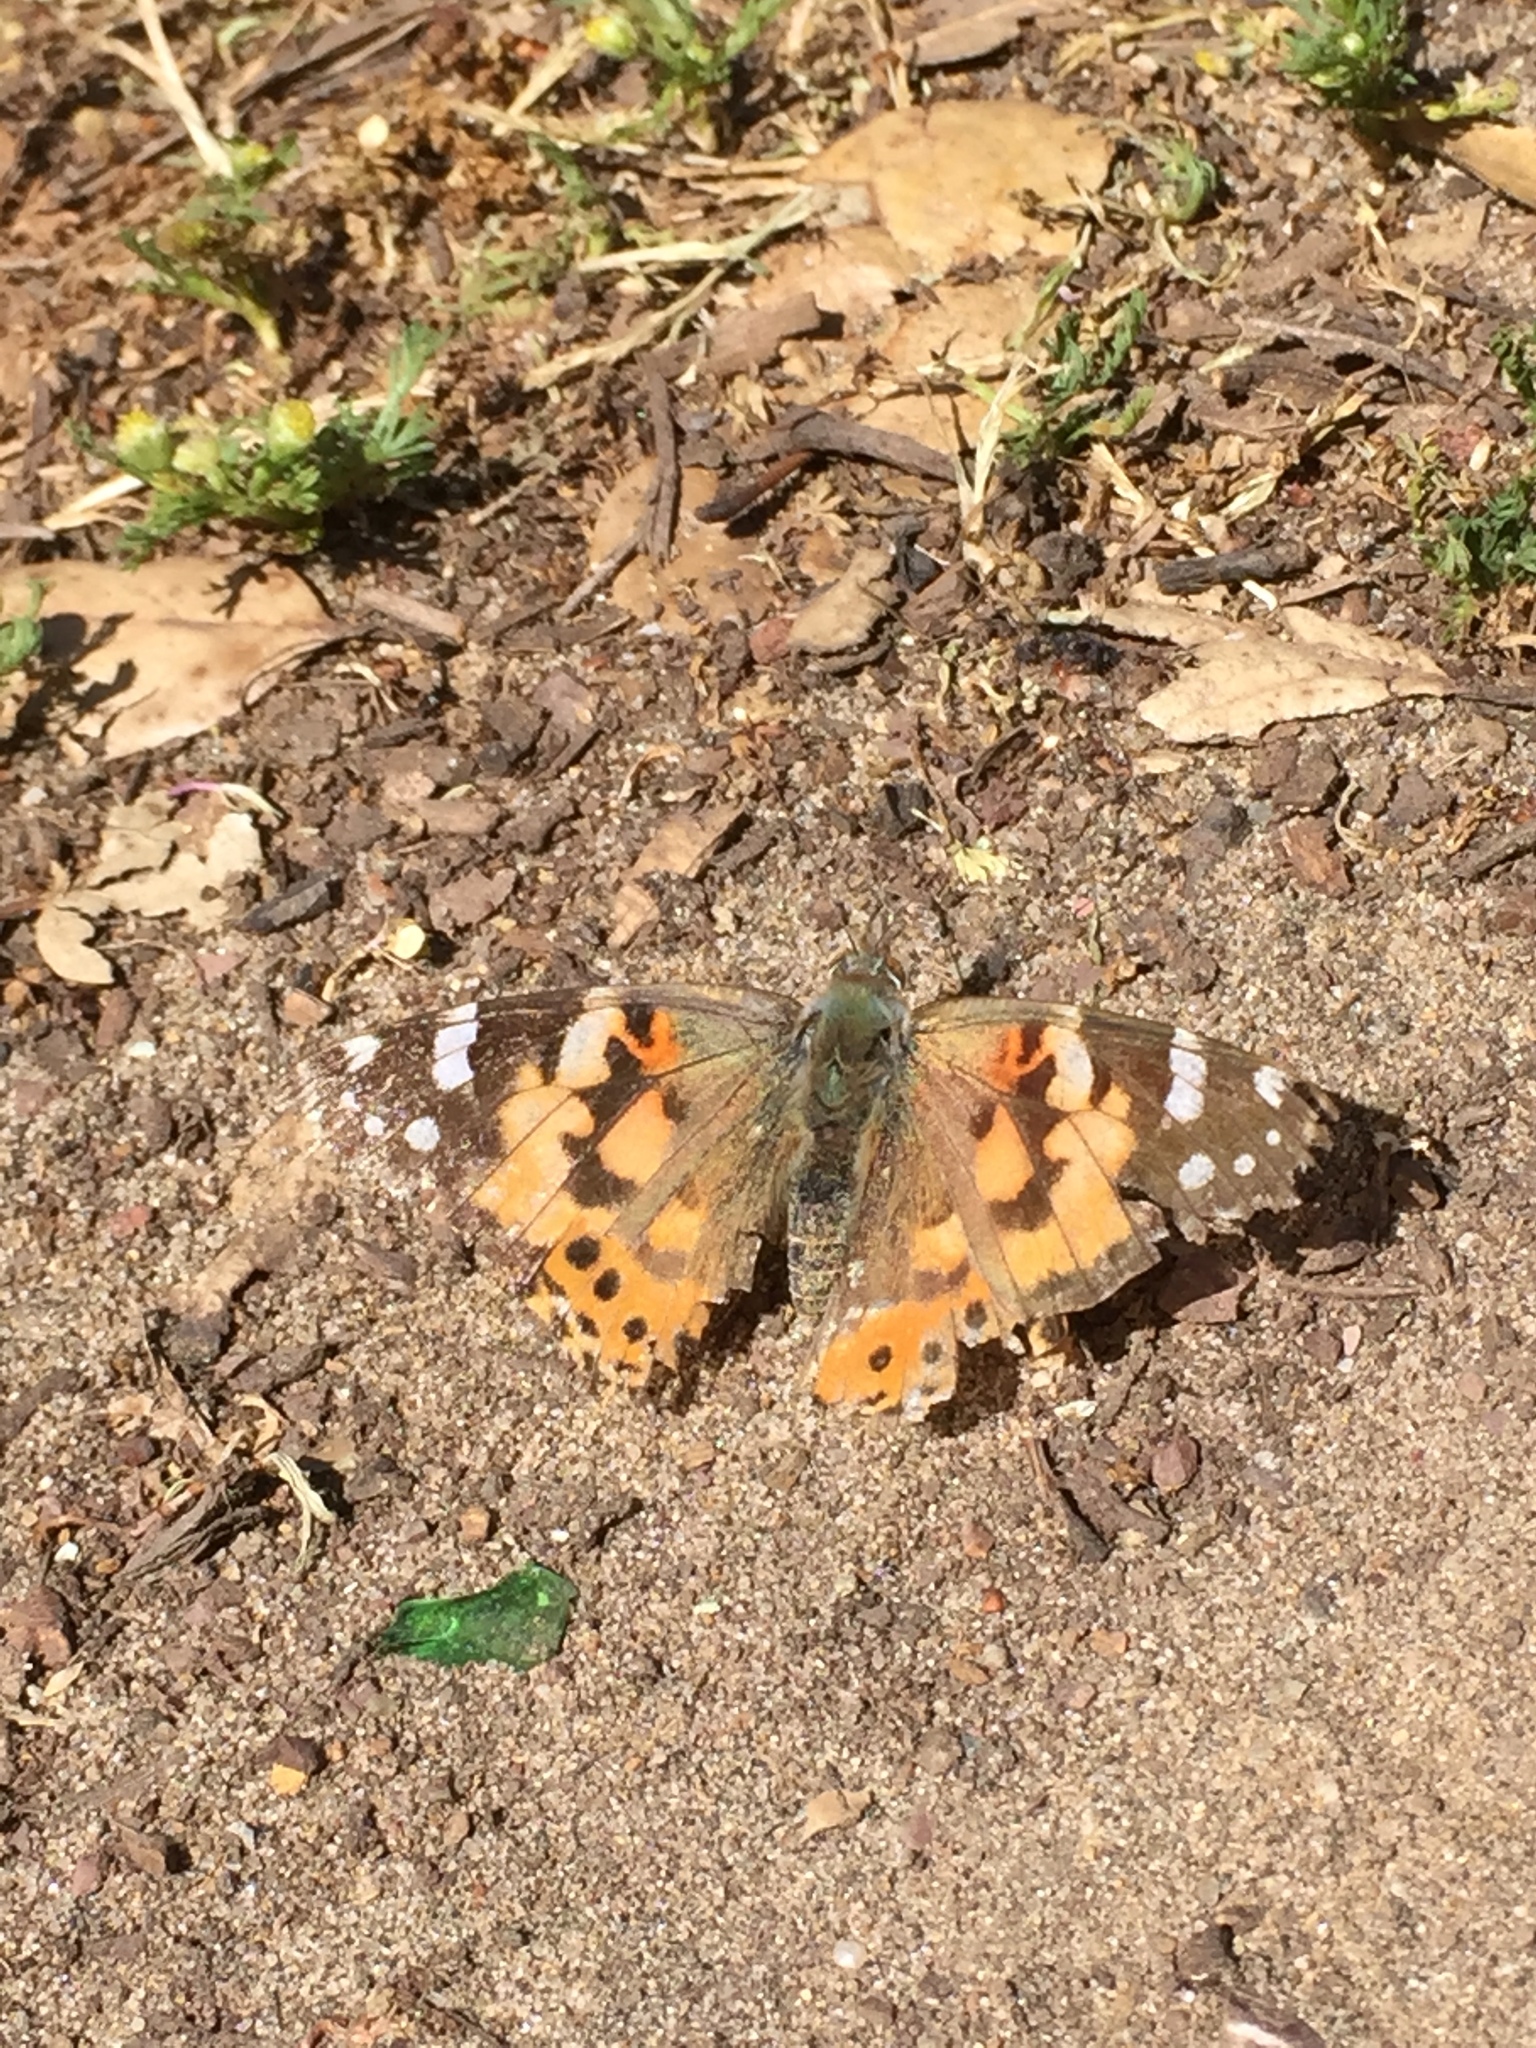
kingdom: Animalia
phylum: Arthropoda
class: Insecta
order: Lepidoptera
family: Nymphalidae
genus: Vanessa
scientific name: Vanessa cardui
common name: Painted lady
